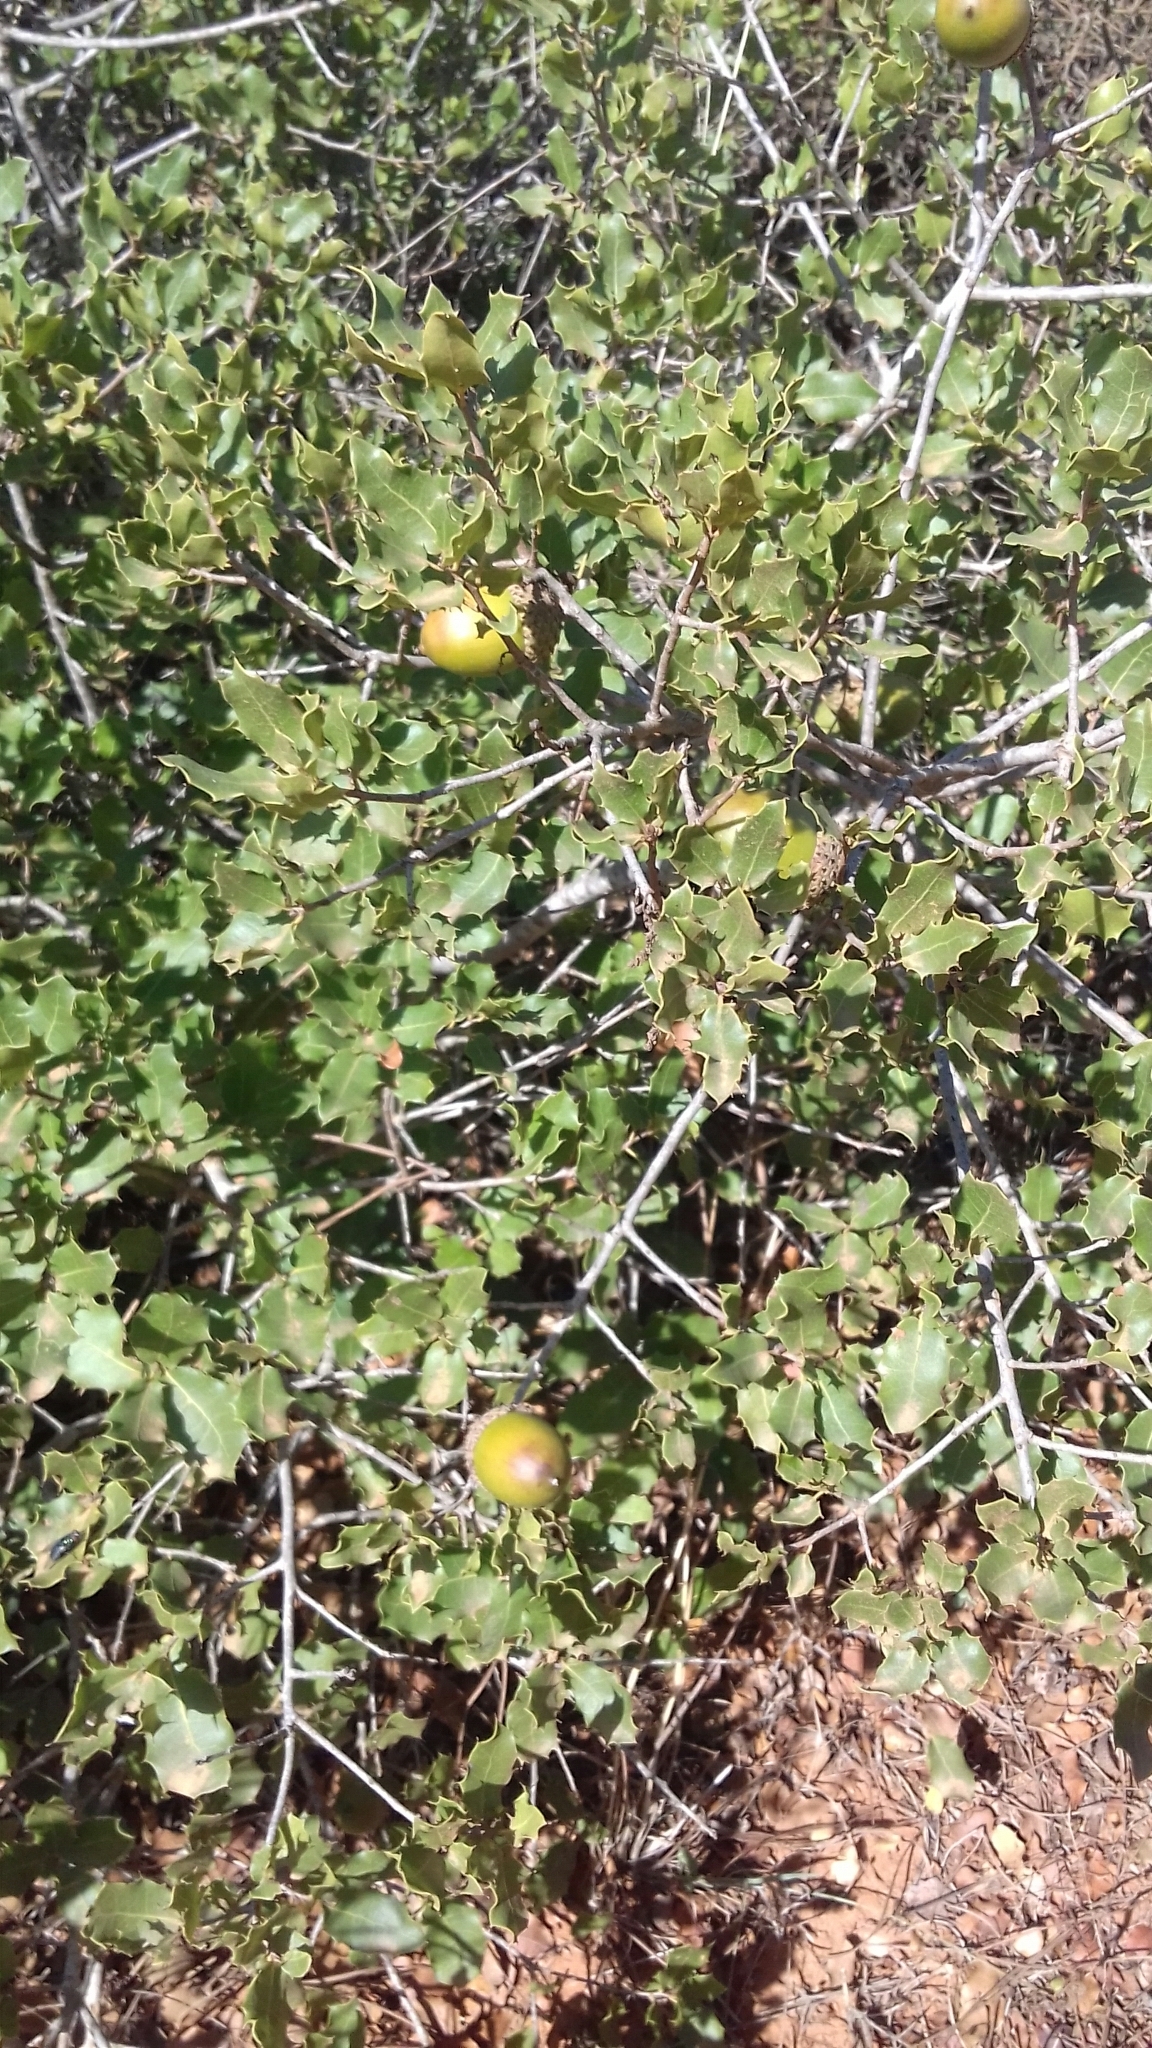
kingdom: Plantae
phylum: Tracheophyta
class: Magnoliopsida
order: Fagales
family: Fagaceae
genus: Quercus
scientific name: Quercus coccifera
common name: Kermes oak
